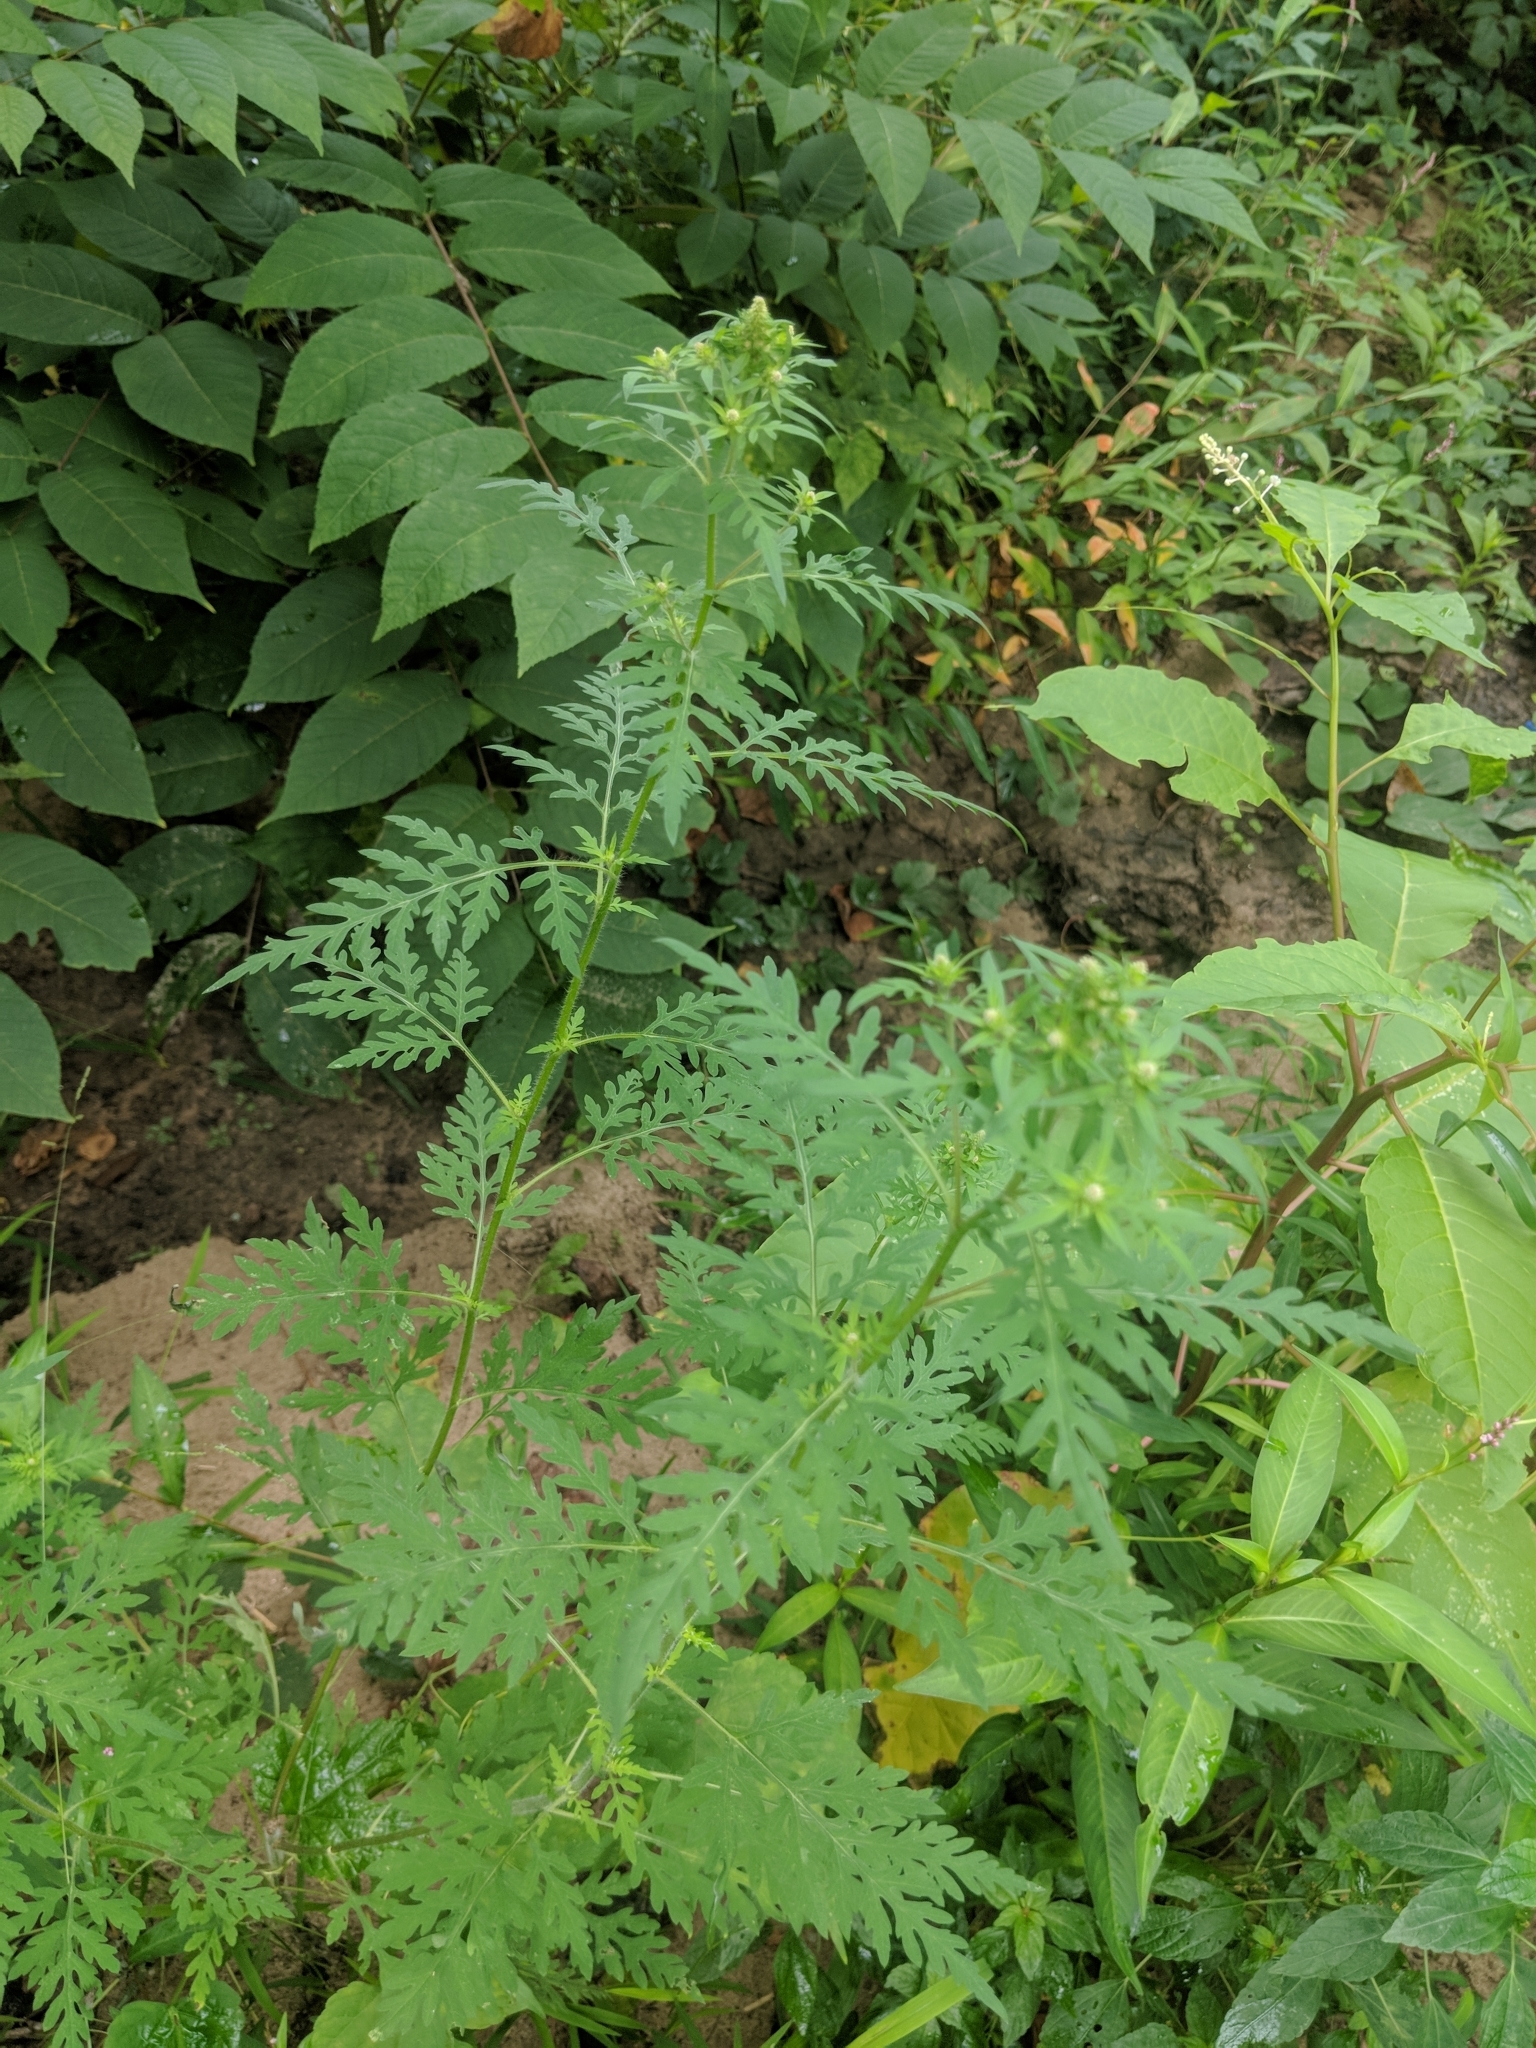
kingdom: Plantae
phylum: Tracheophyta
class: Magnoliopsida
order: Asterales
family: Asteraceae
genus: Ambrosia
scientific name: Ambrosia artemisiifolia
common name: Annual ragweed
